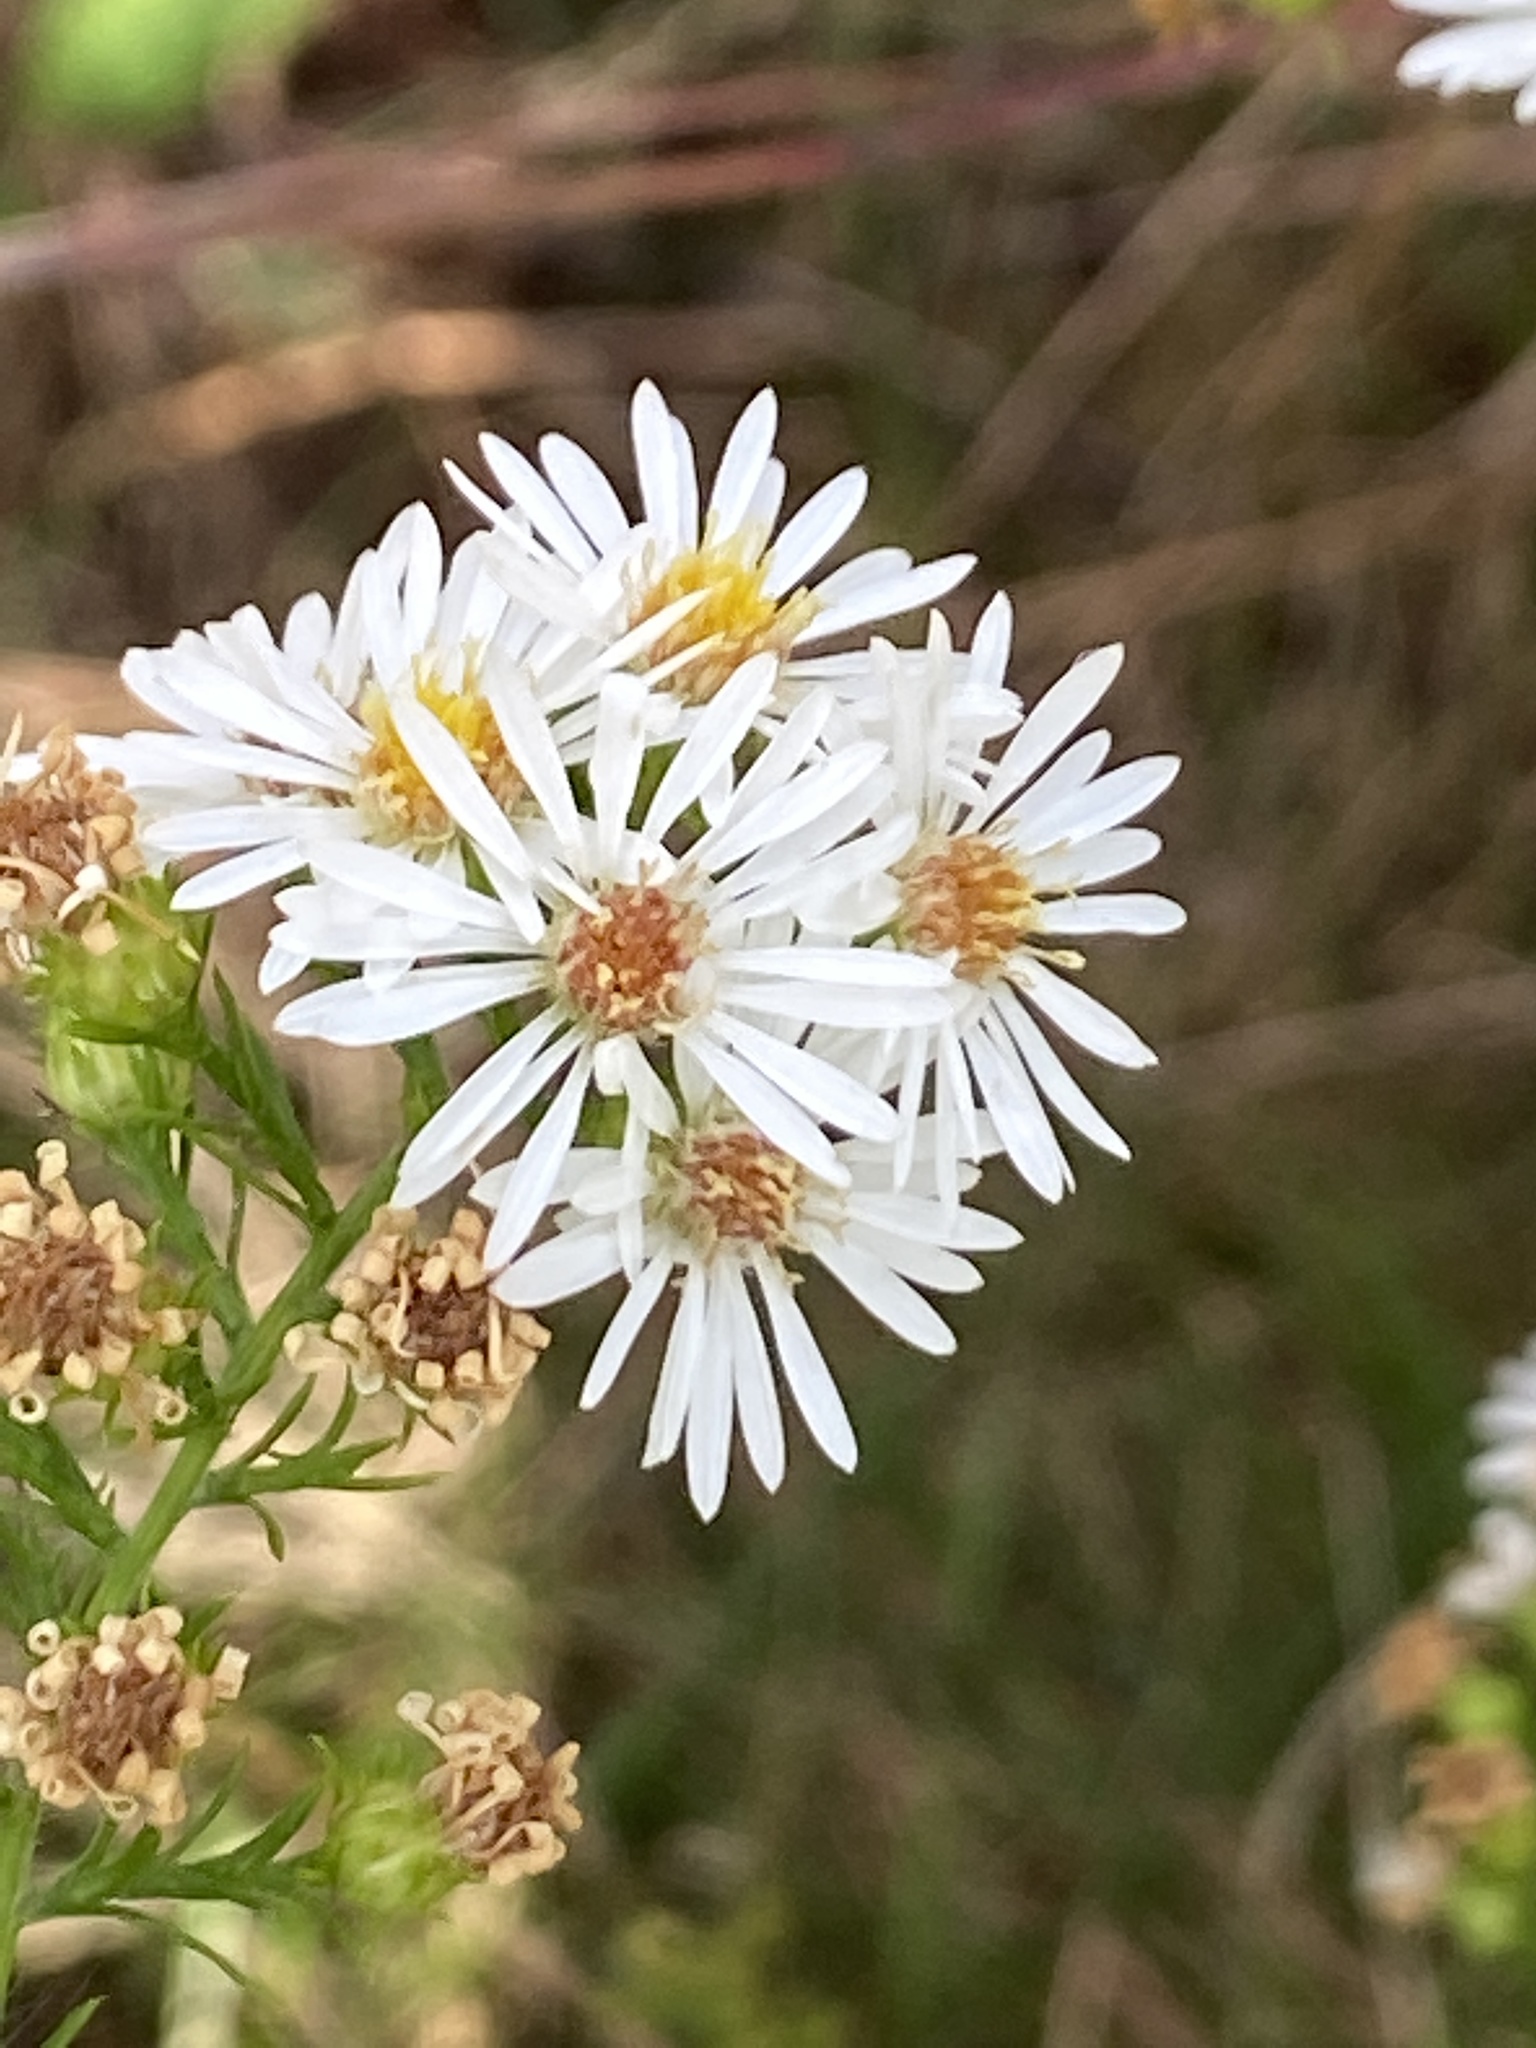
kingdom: Plantae
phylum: Tracheophyta
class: Magnoliopsida
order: Asterales
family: Asteraceae
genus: Symphyotrichum
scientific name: Symphyotrichum pilosum
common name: Awl aster
